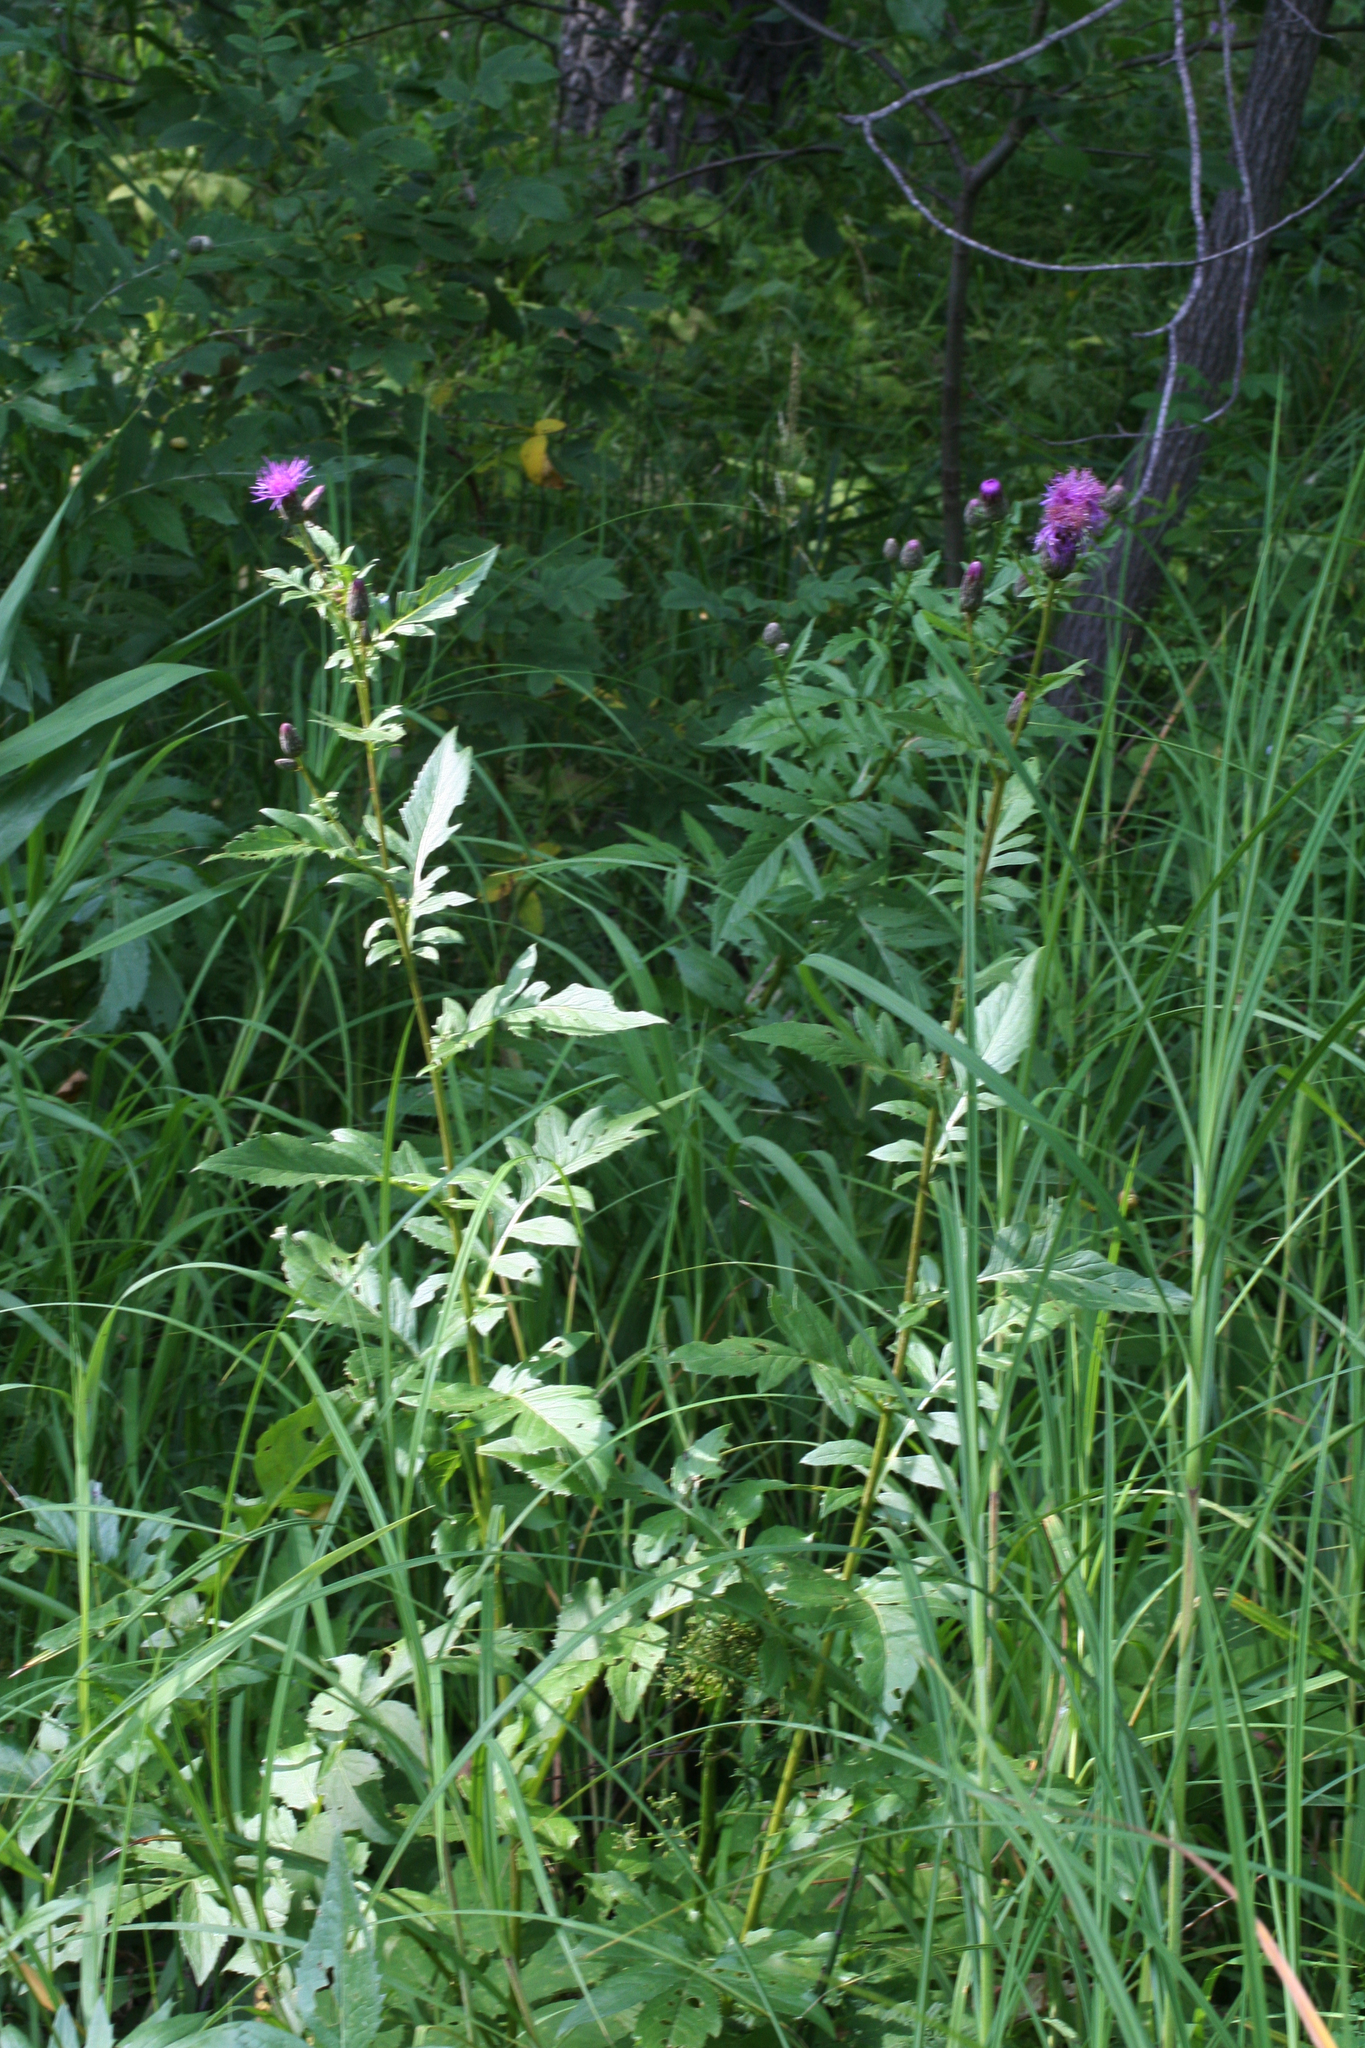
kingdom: Plantae
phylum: Tracheophyta
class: Magnoliopsida
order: Asterales
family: Asteraceae
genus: Serratula
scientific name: Serratula coronata
